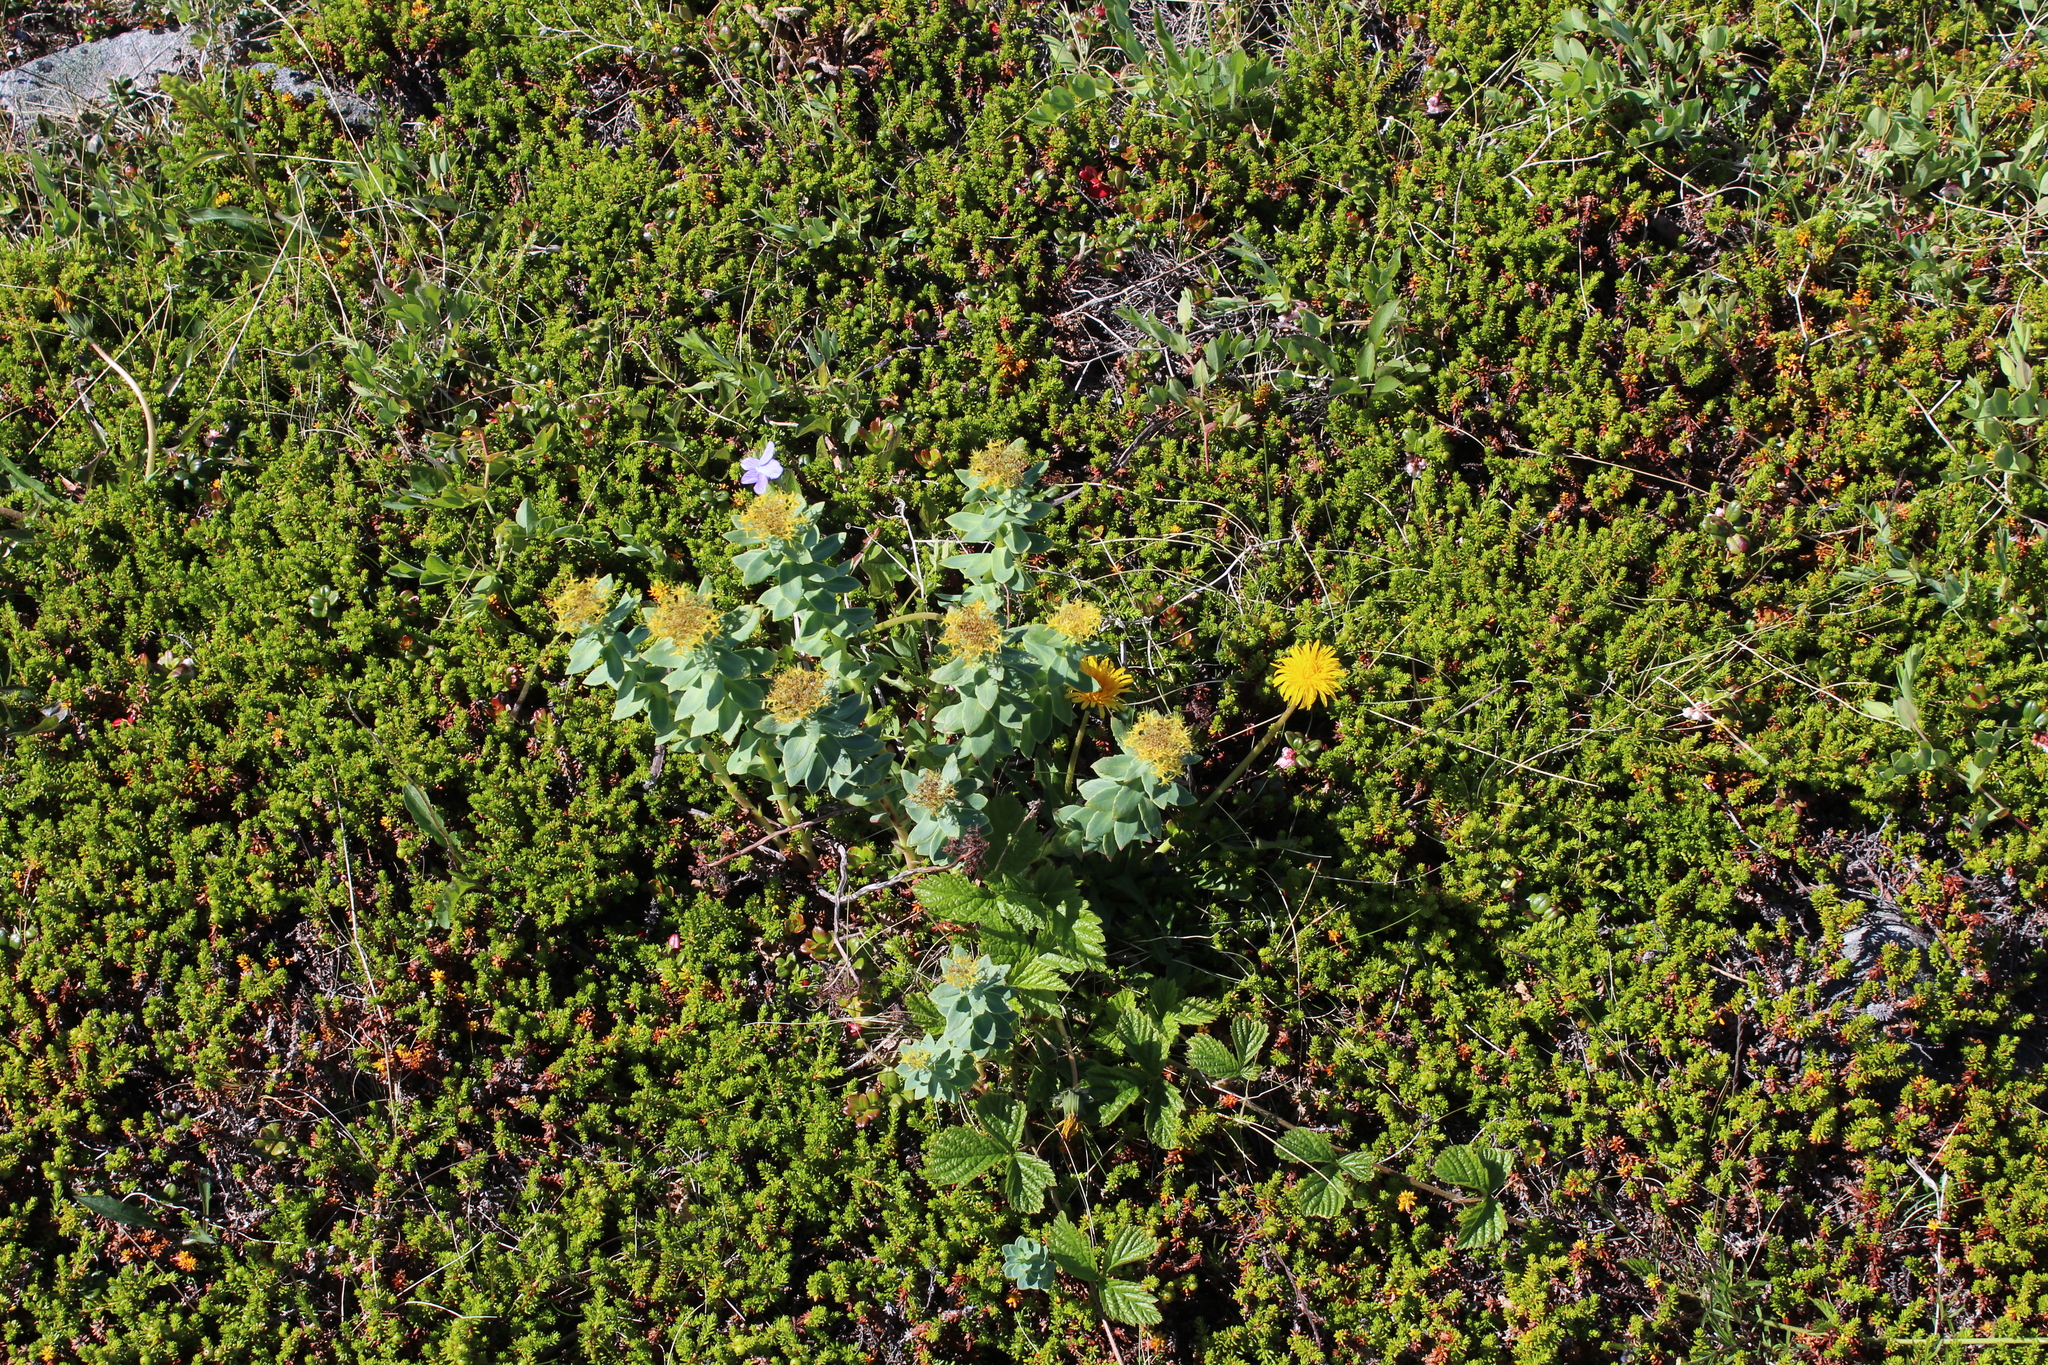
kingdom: Plantae
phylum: Tracheophyta
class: Magnoliopsida
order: Saxifragales
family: Crassulaceae
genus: Rhodiola
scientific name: Rhodiola rosea
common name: Roseroot
